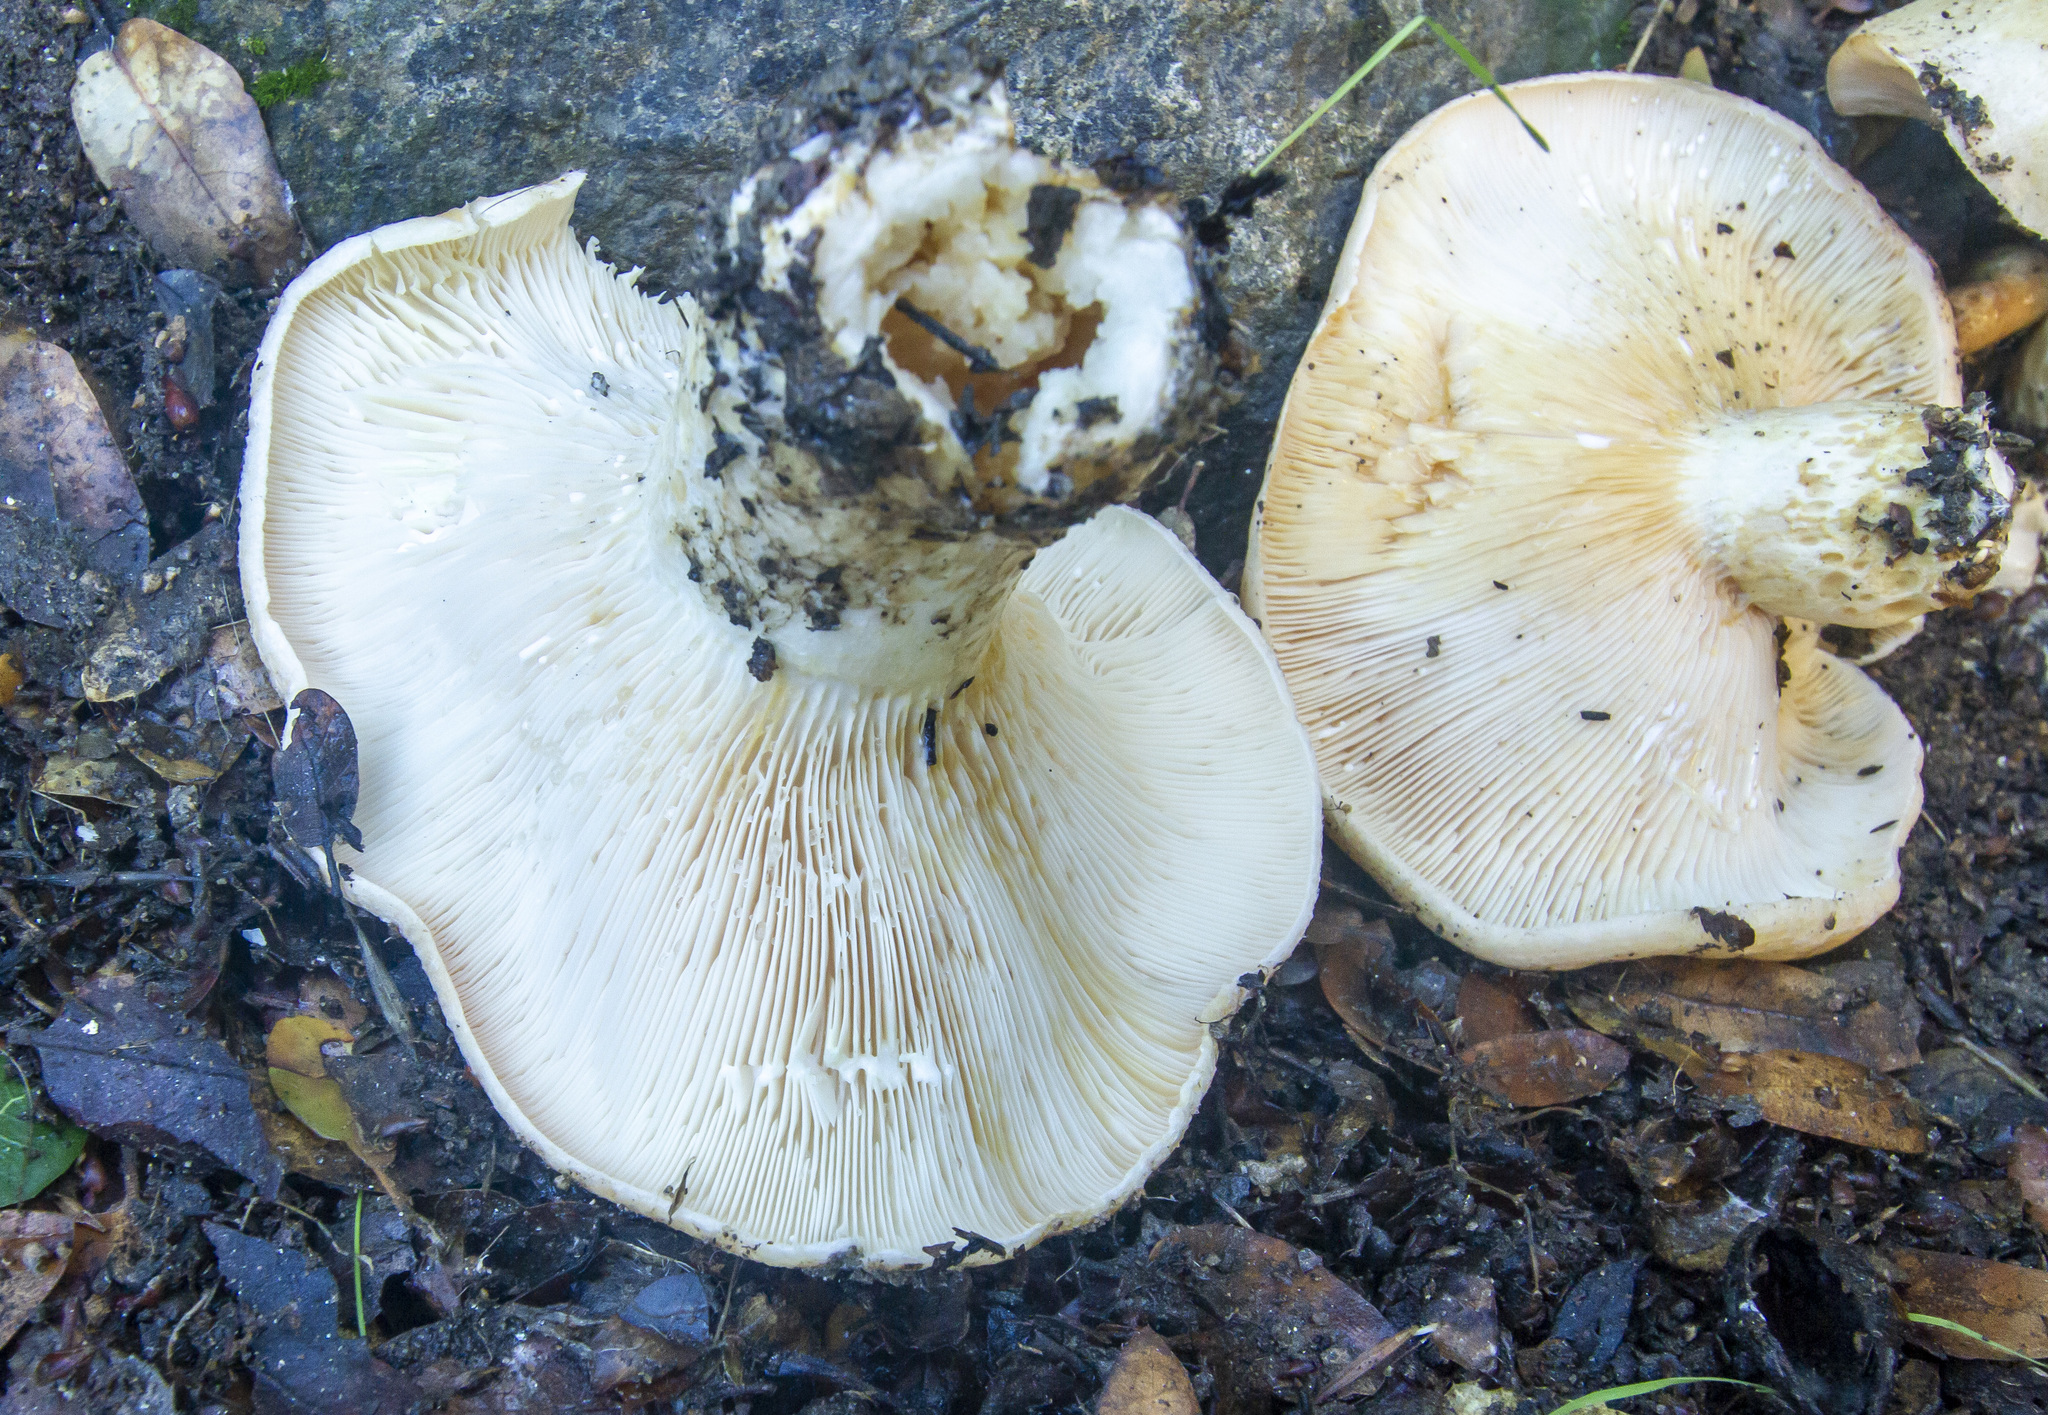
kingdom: Fungi
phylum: Basidiomycota
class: Agaricomycetes
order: Russulales
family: Russulaceae
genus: Lactarius
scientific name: Lactarius alnicola
